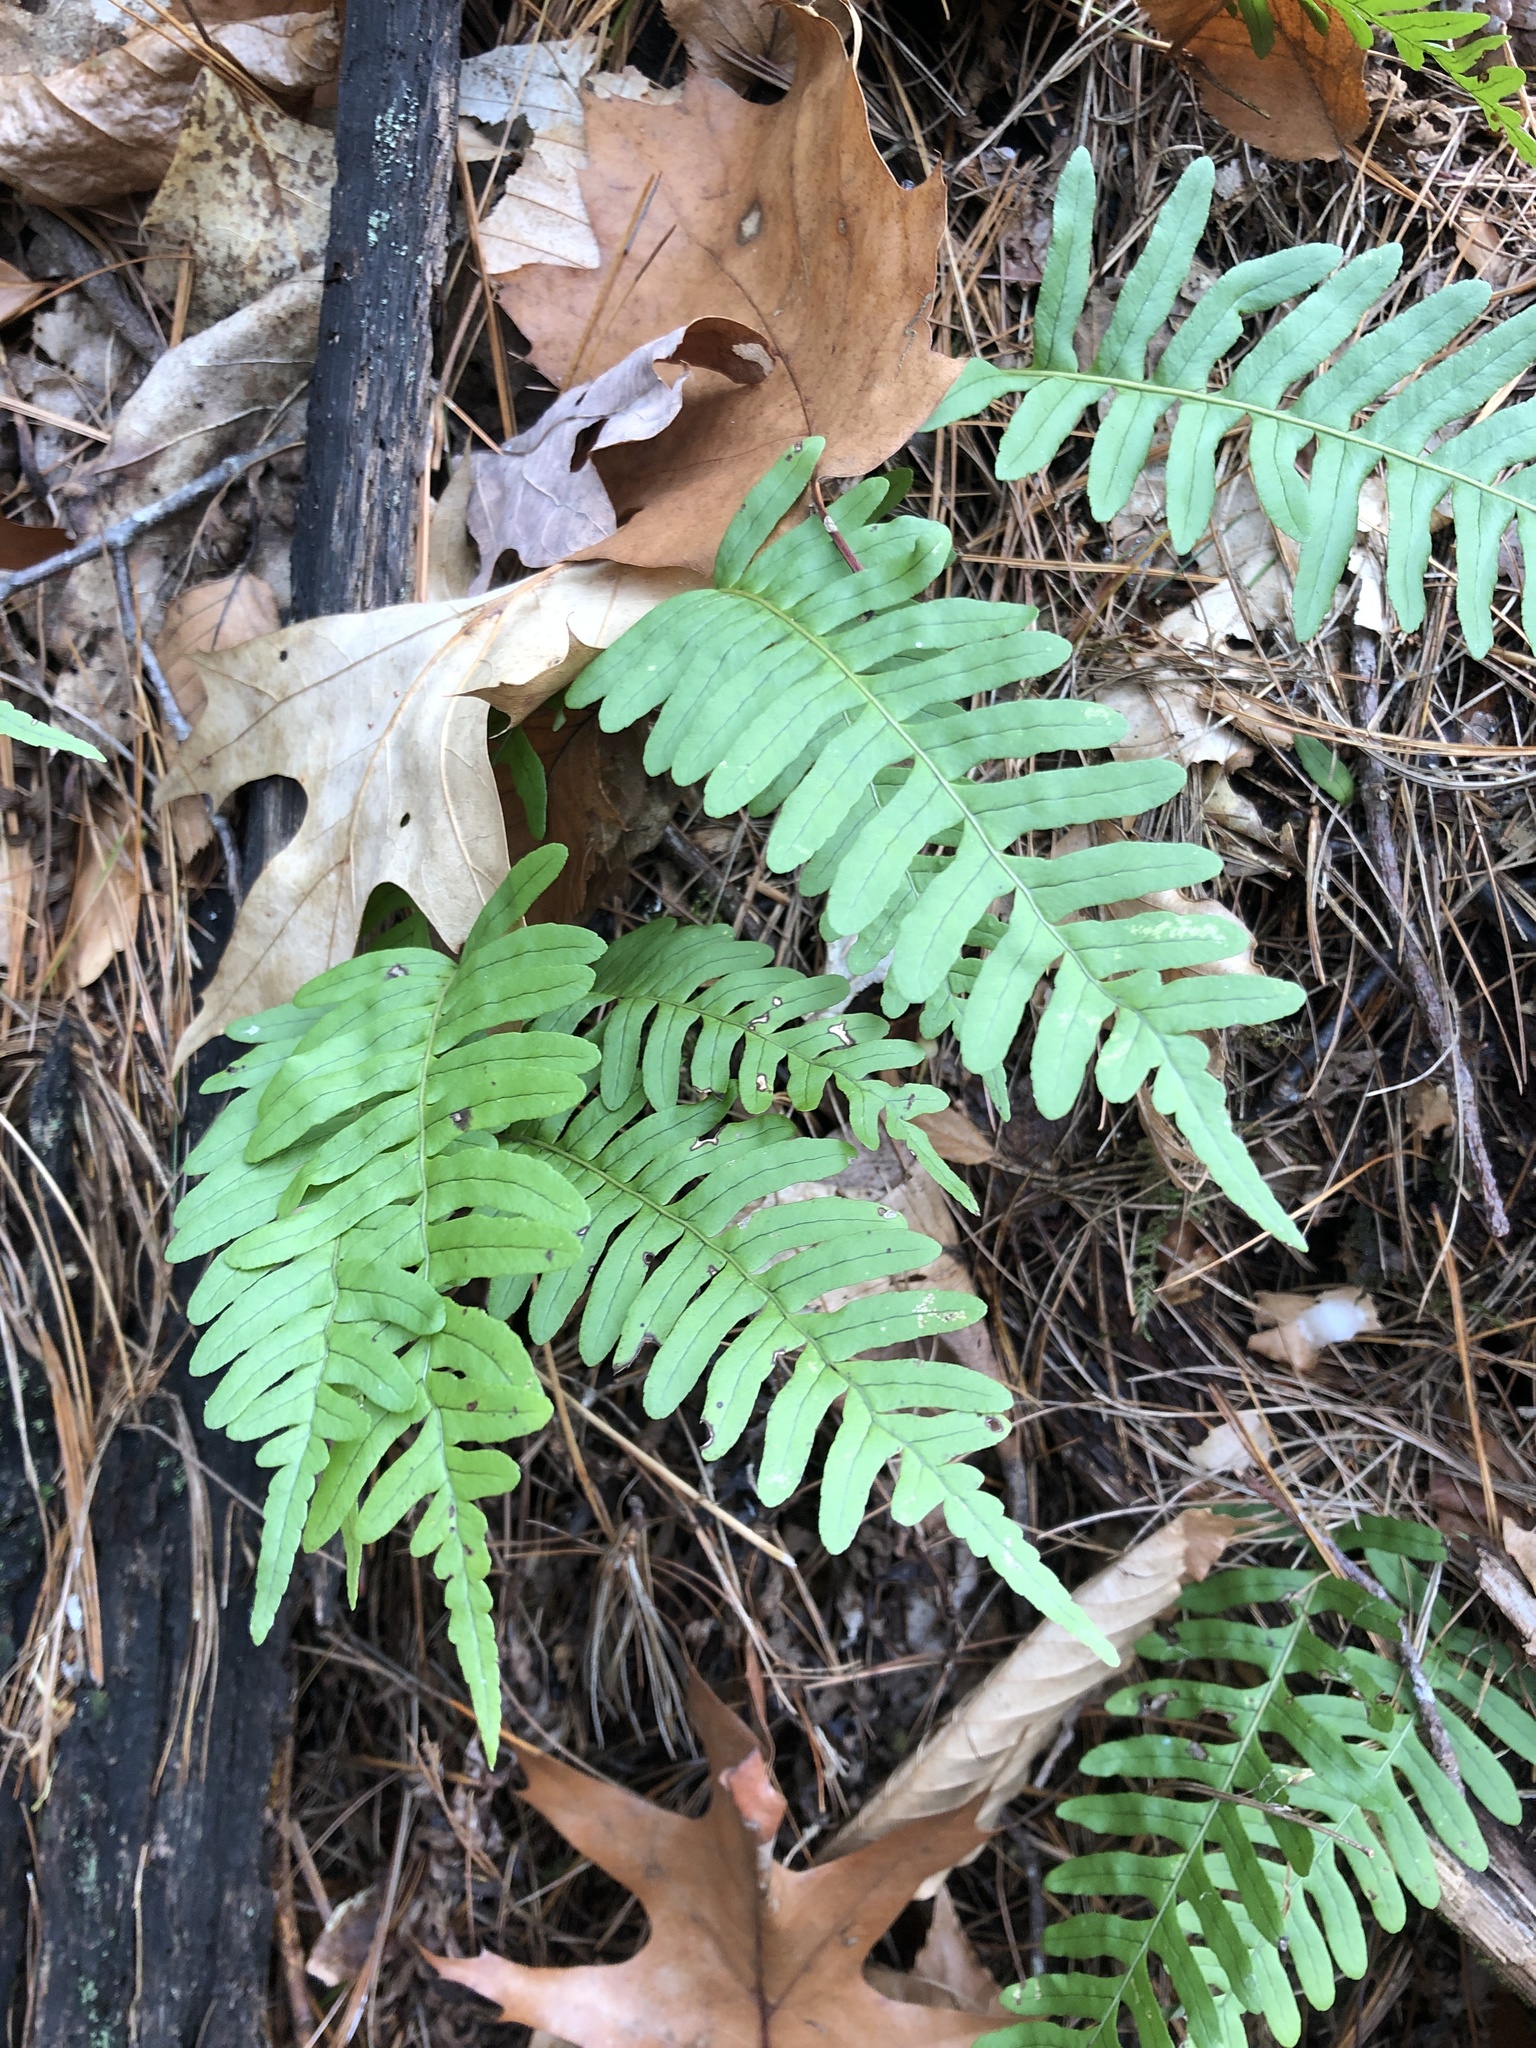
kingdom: Plantae
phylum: Tracheophyta
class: Polypodiopsida
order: Polypodiales
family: Polypodiaceae
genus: Polypodium
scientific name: Polypodium virginianum
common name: American wall fern
